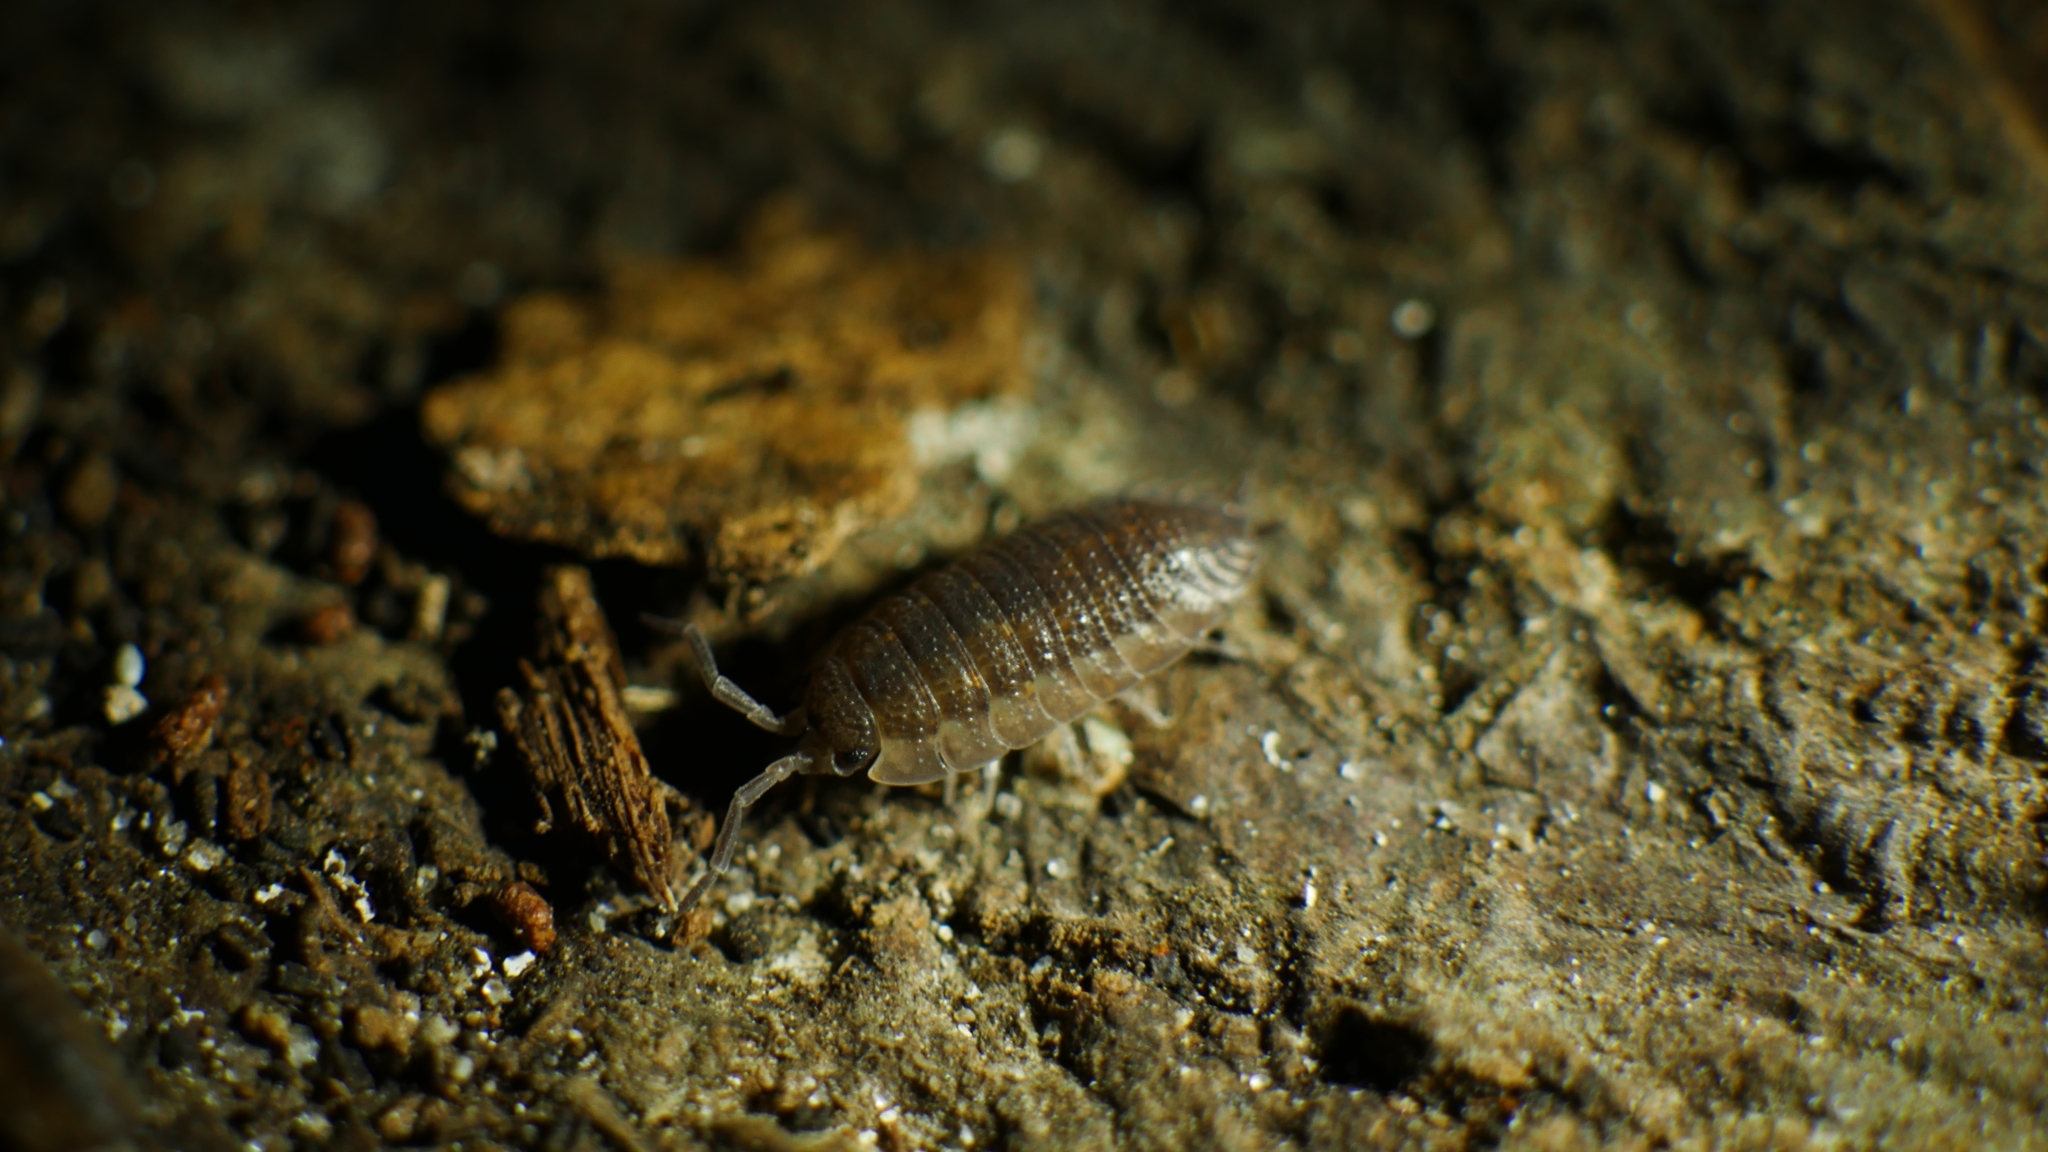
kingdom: Animalia
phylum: Arthropoda
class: Malacostraca
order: Isopoda
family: Porcellionidae
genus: Porcellio
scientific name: Porcellio scaber
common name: Common rough woodlouse
